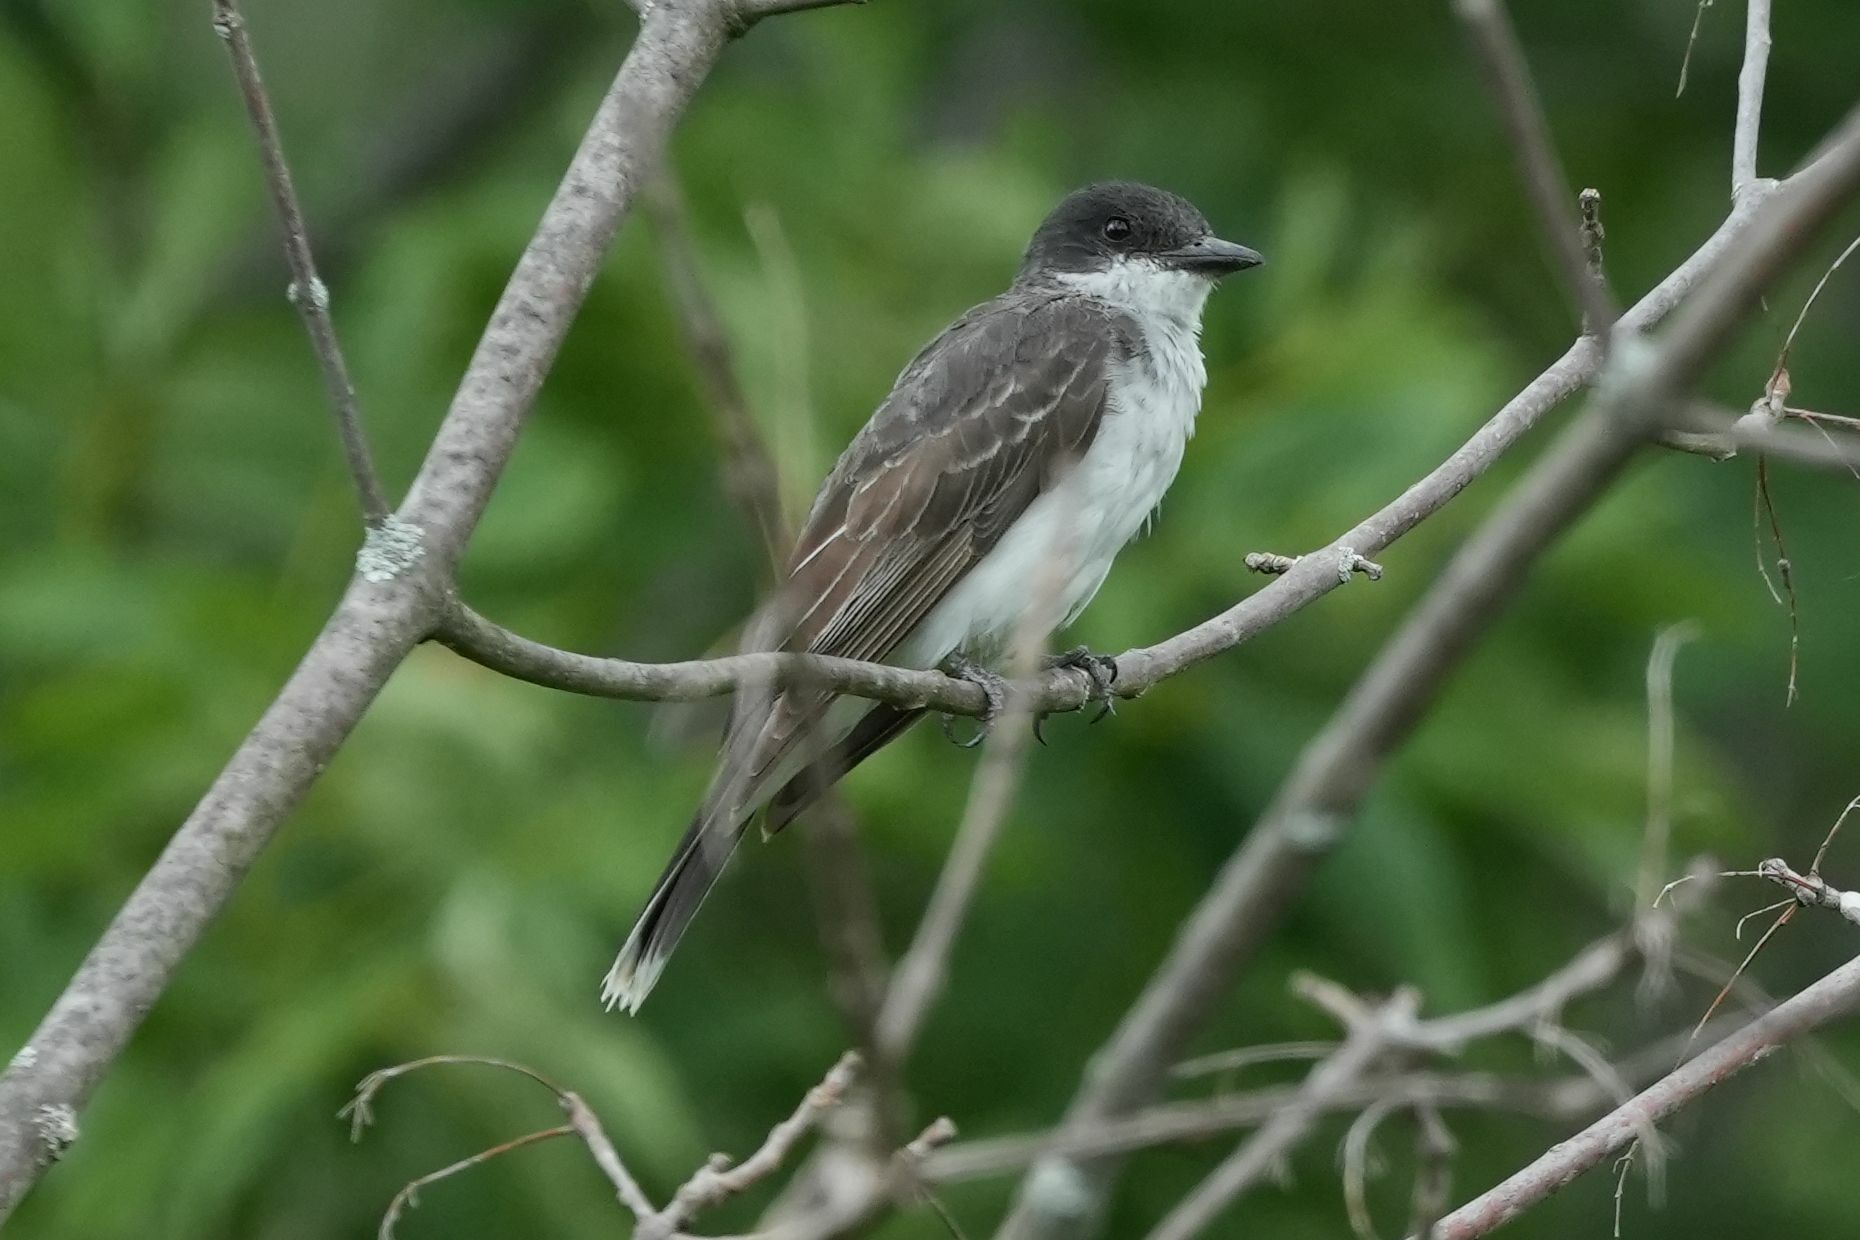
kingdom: Animalia
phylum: Chordata
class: Aves
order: Passeriformes
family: Tyrannidae
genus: Tyrannus
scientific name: Tyrannus tyrannus
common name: Eastern kingbird
